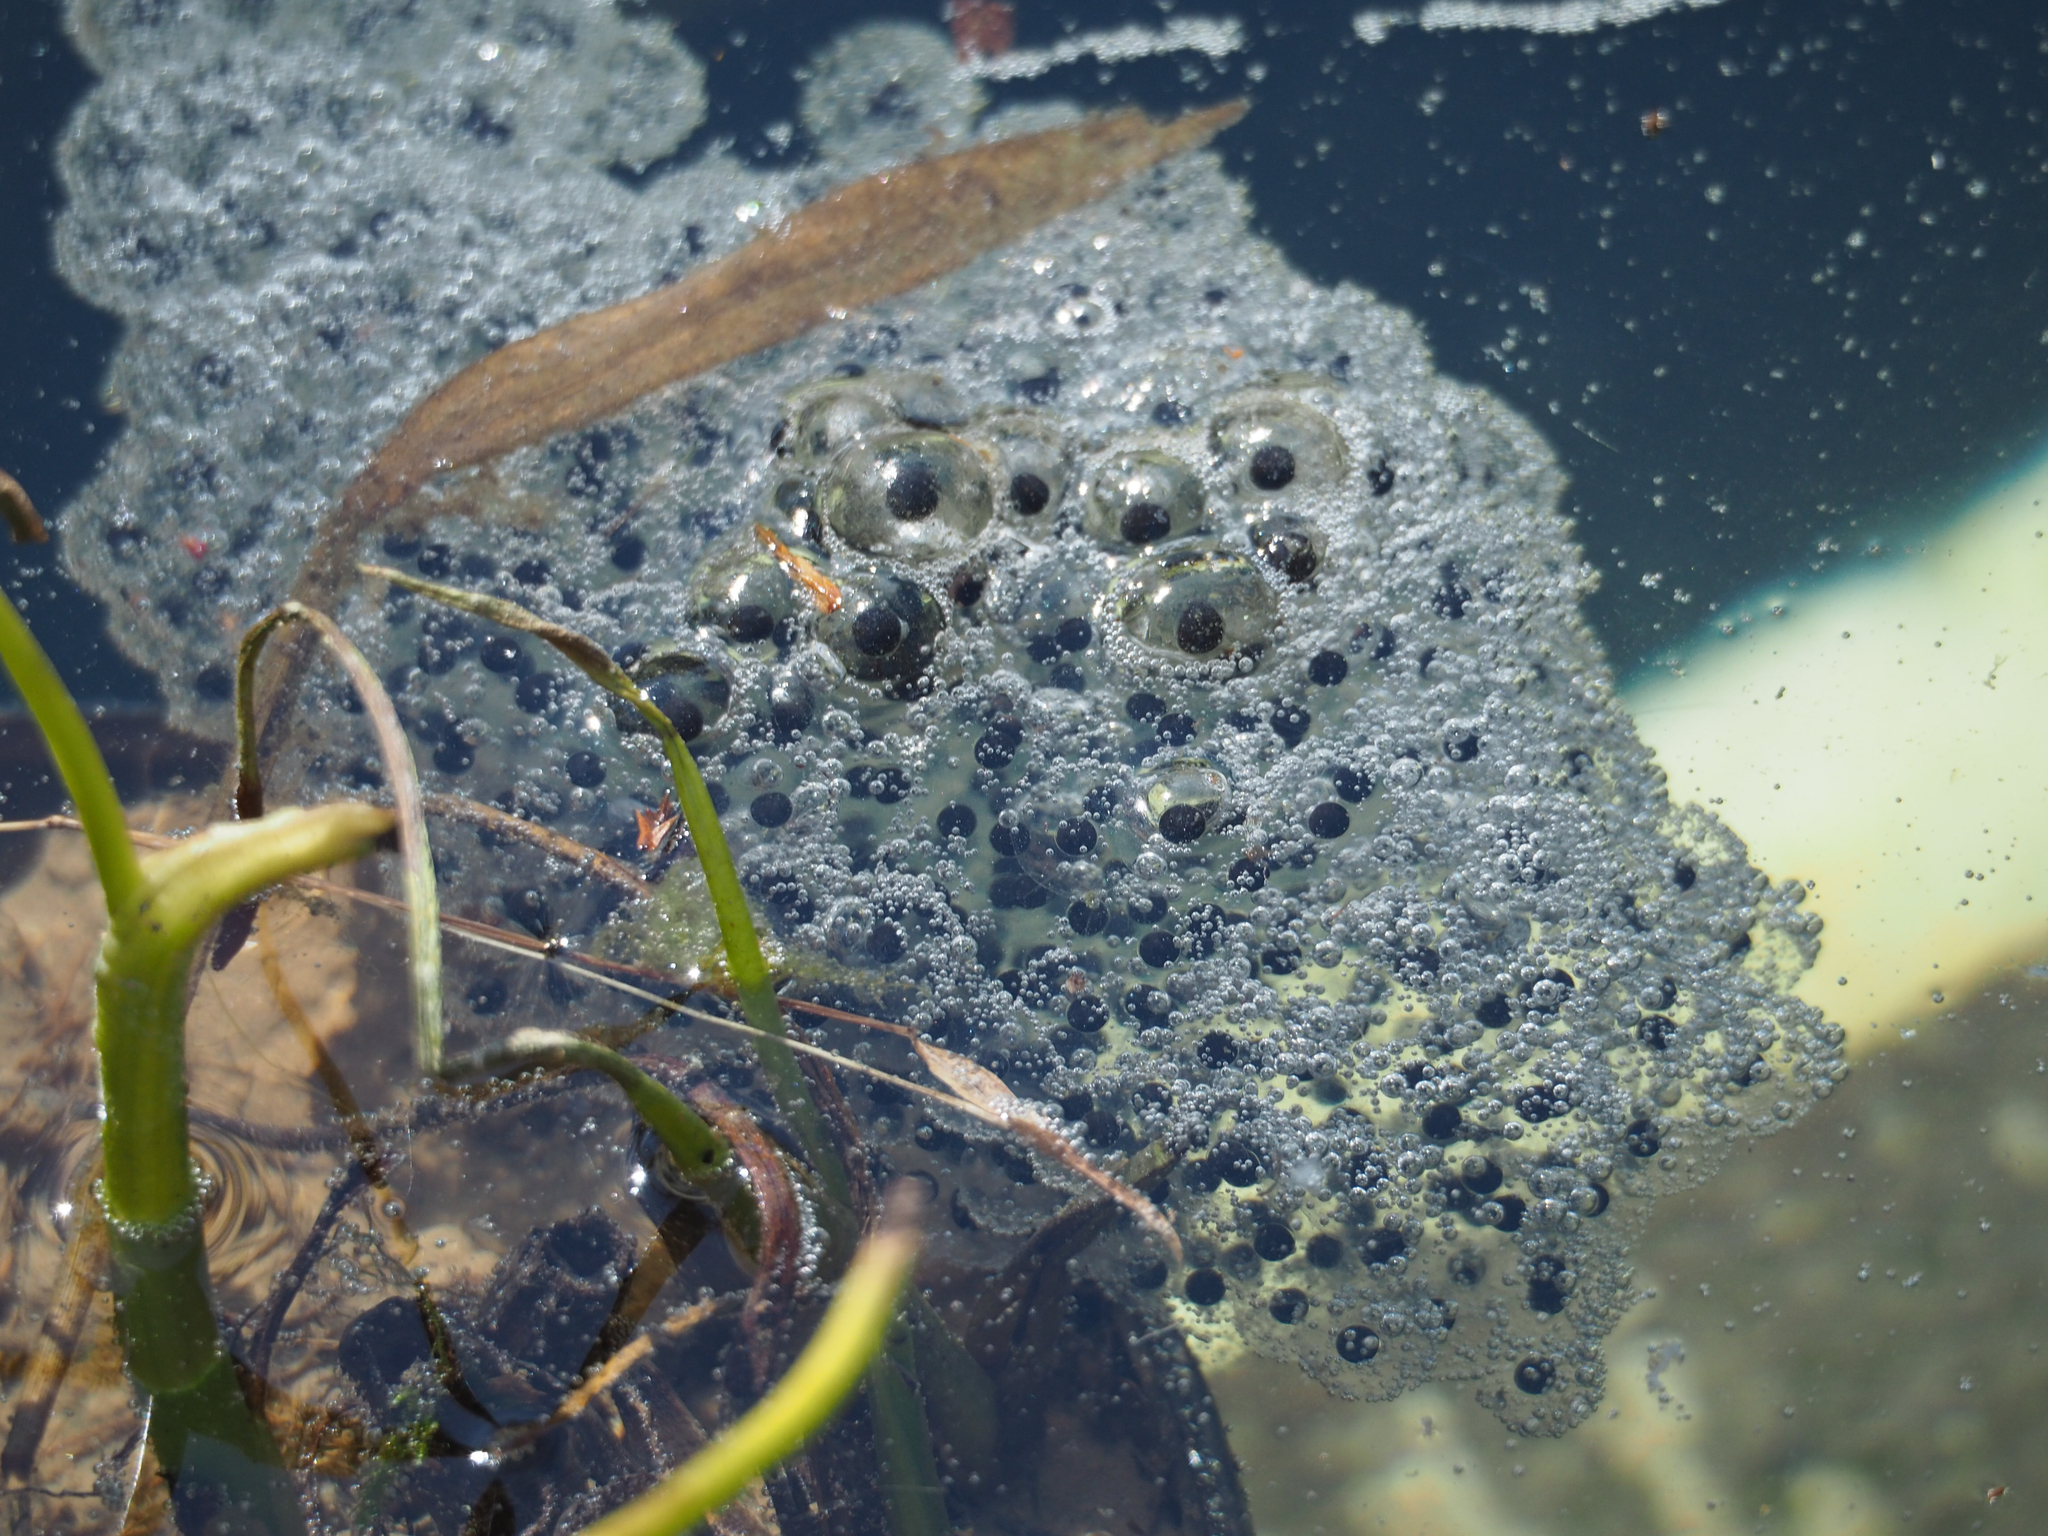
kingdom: Animalia
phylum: Chordata
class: Amphibia
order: Anura
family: Ranidae
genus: Lithobates
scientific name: Lithobates sylvaticus
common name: Wood frog
